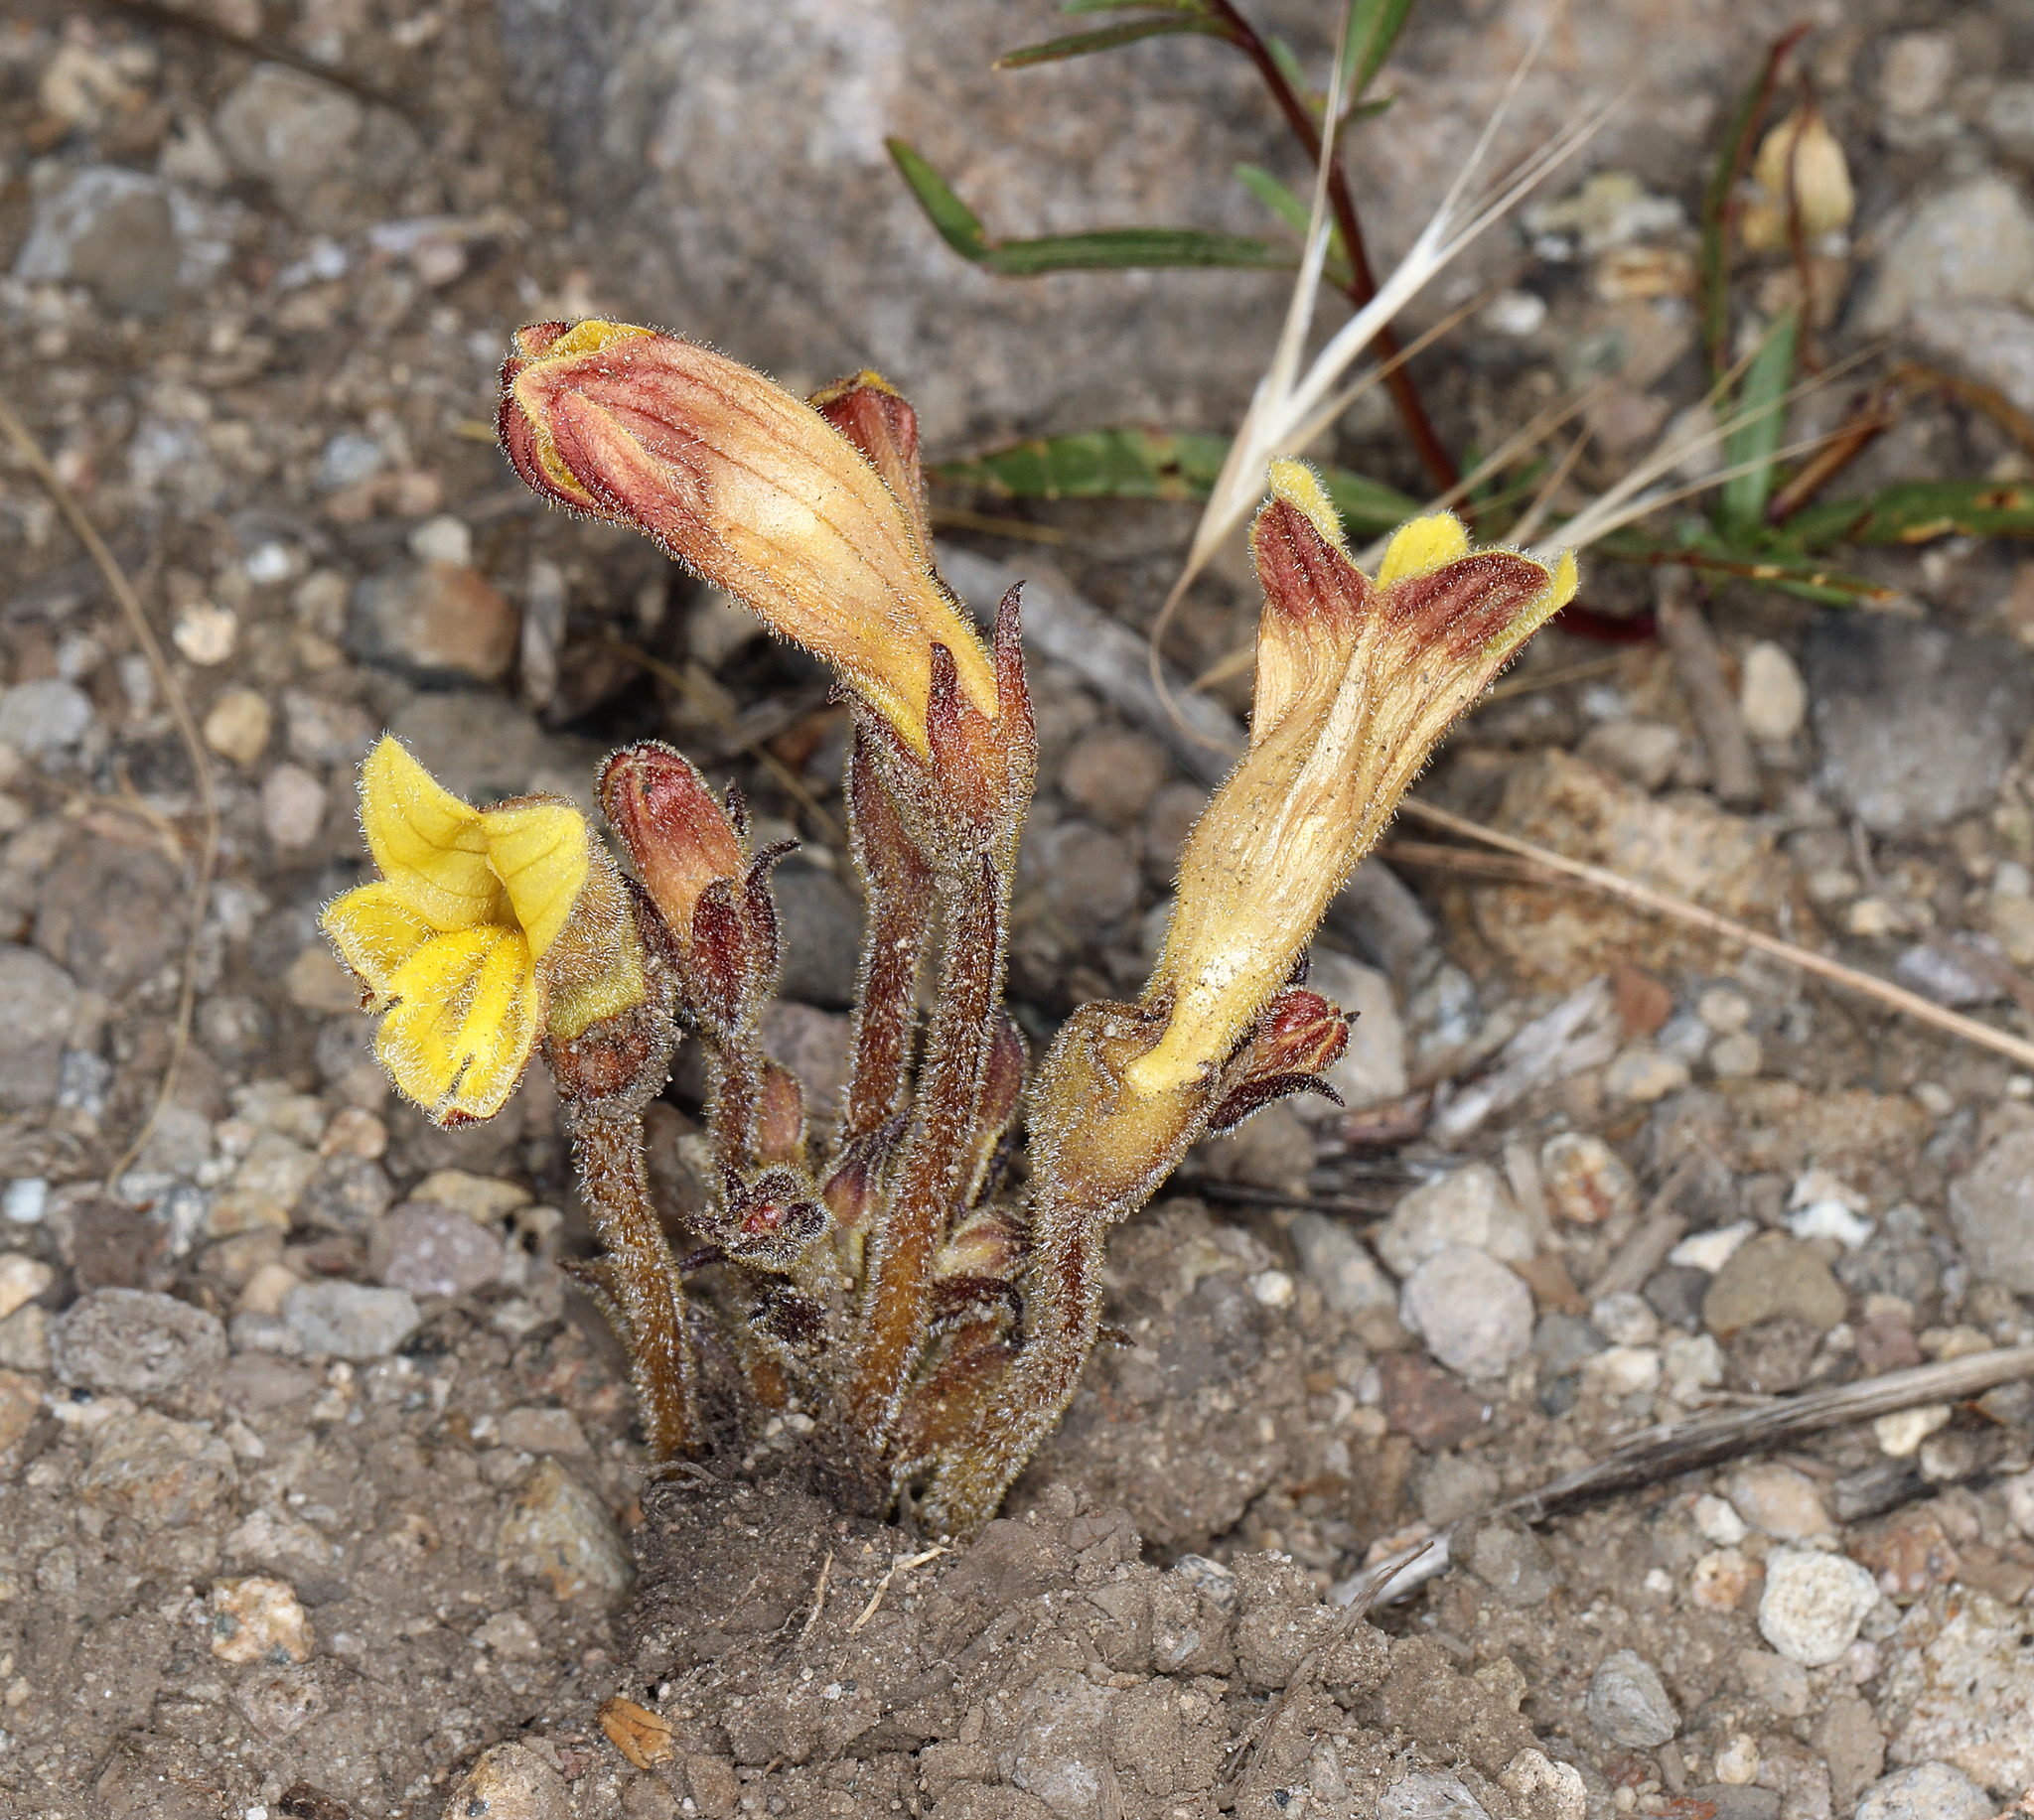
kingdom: Plantae
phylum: Tracheophyta
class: Magnoliopsida
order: Lamiales
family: Orobanchaceae
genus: Aphyllon
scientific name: Aphyllon franciscanum
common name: San francisco broomrape
